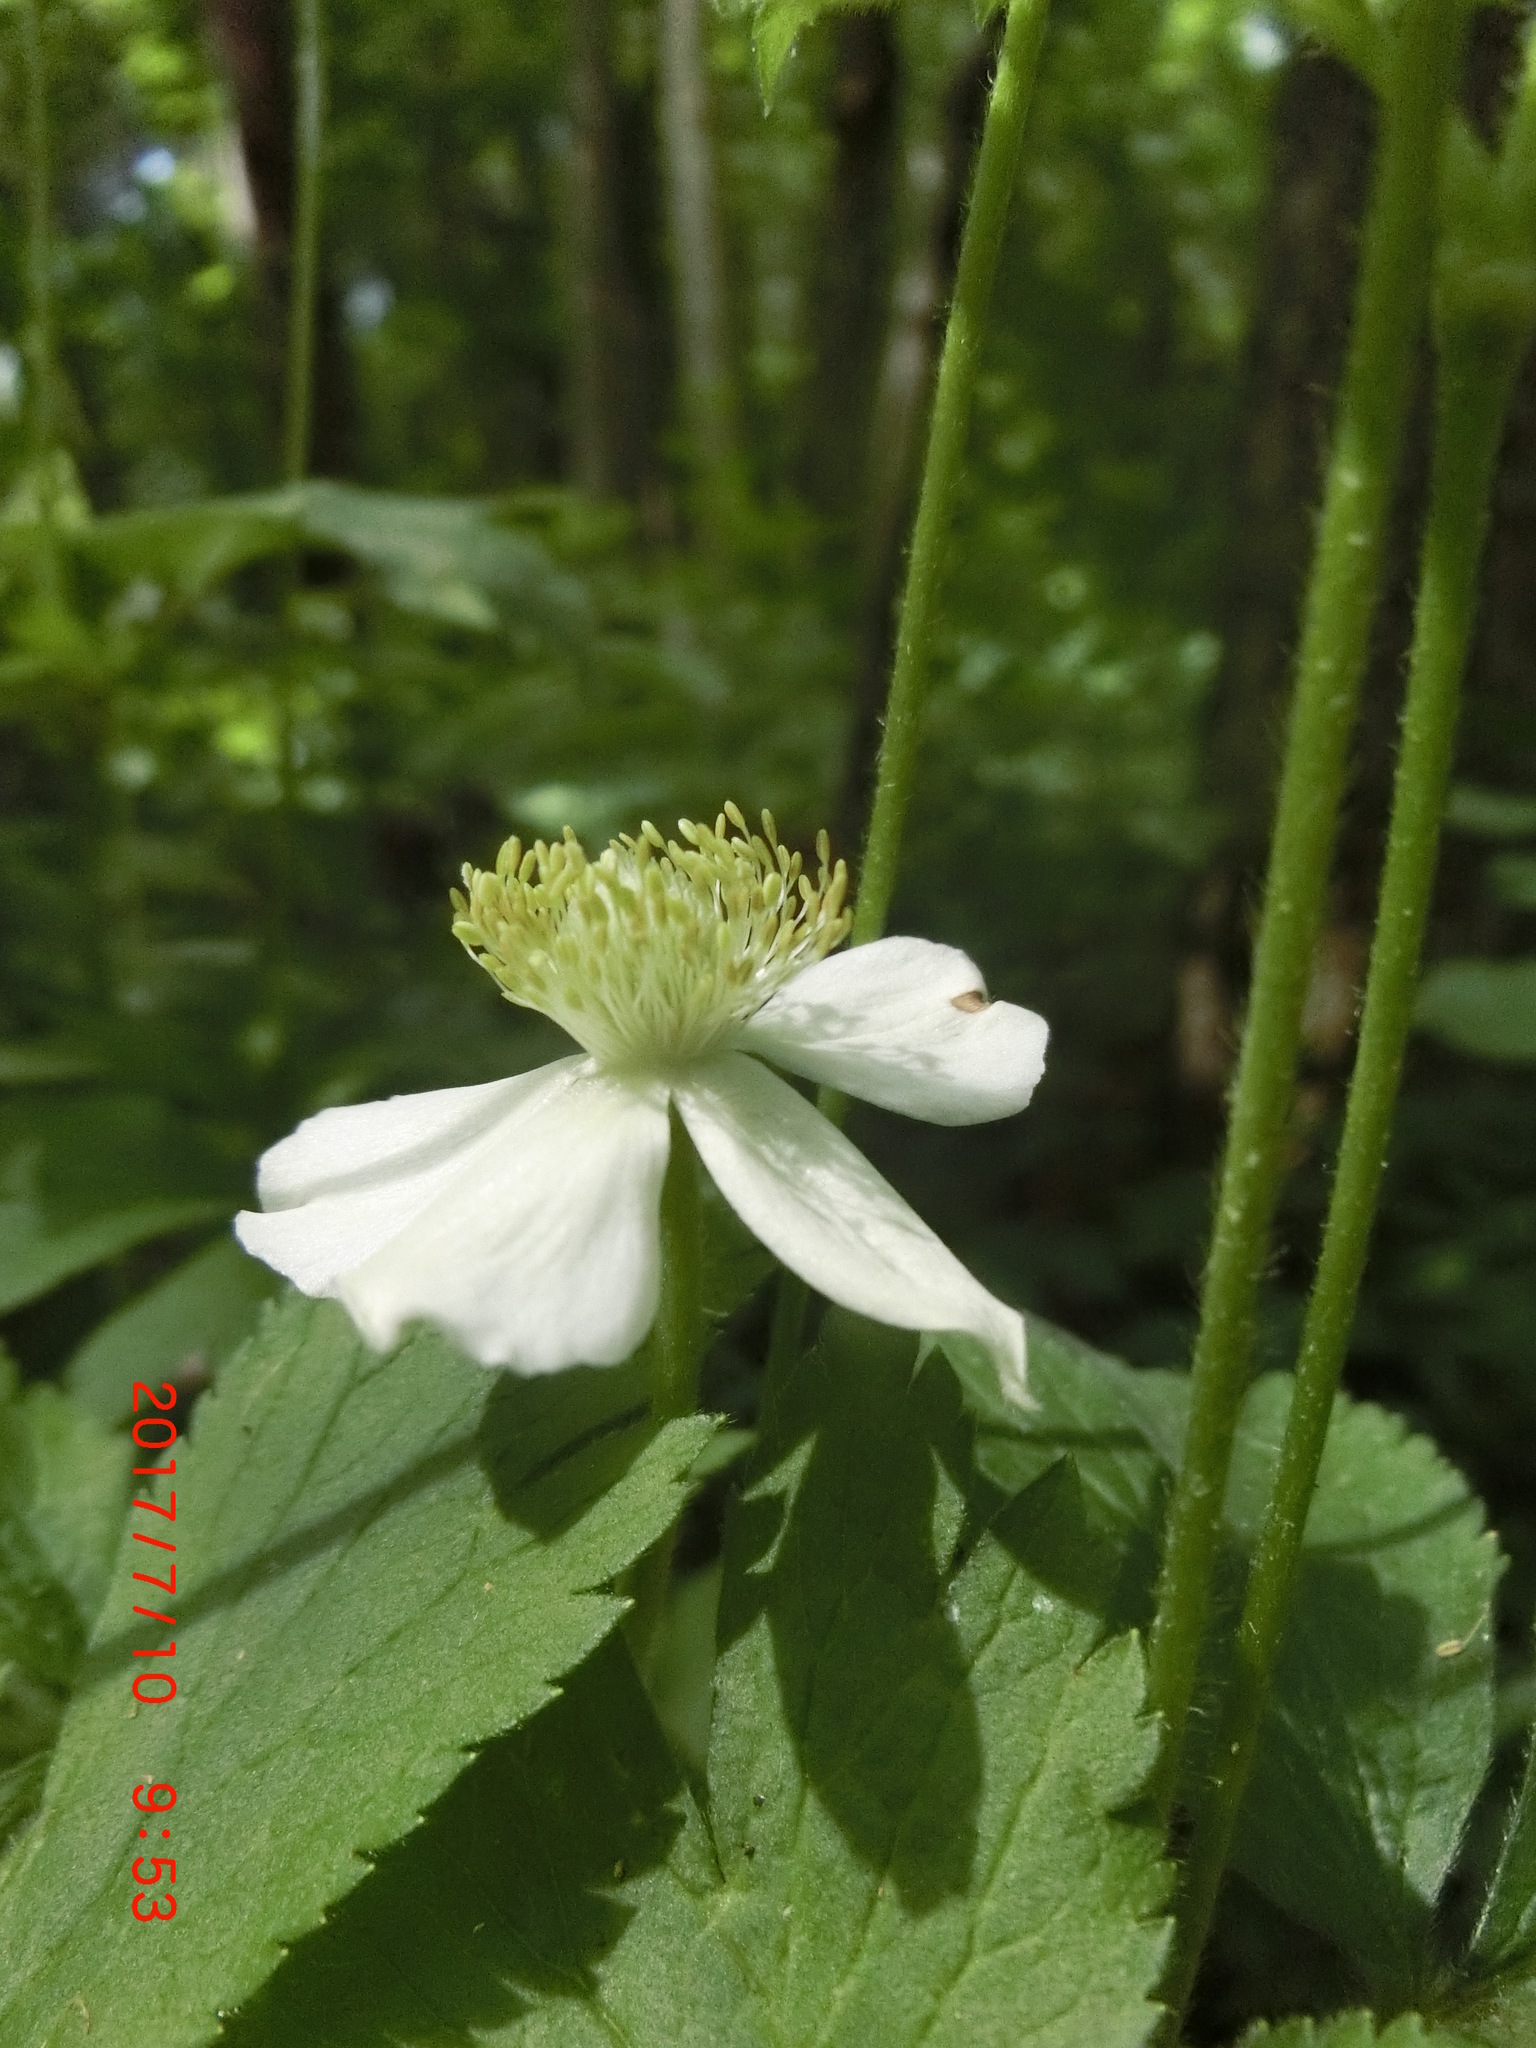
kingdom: Plantae
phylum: Tracheophyta
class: Magnoliopsida
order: Ranunculales
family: Ranunculaceae
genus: Anemone
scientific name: Anemone virginiana
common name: Tall anemone
